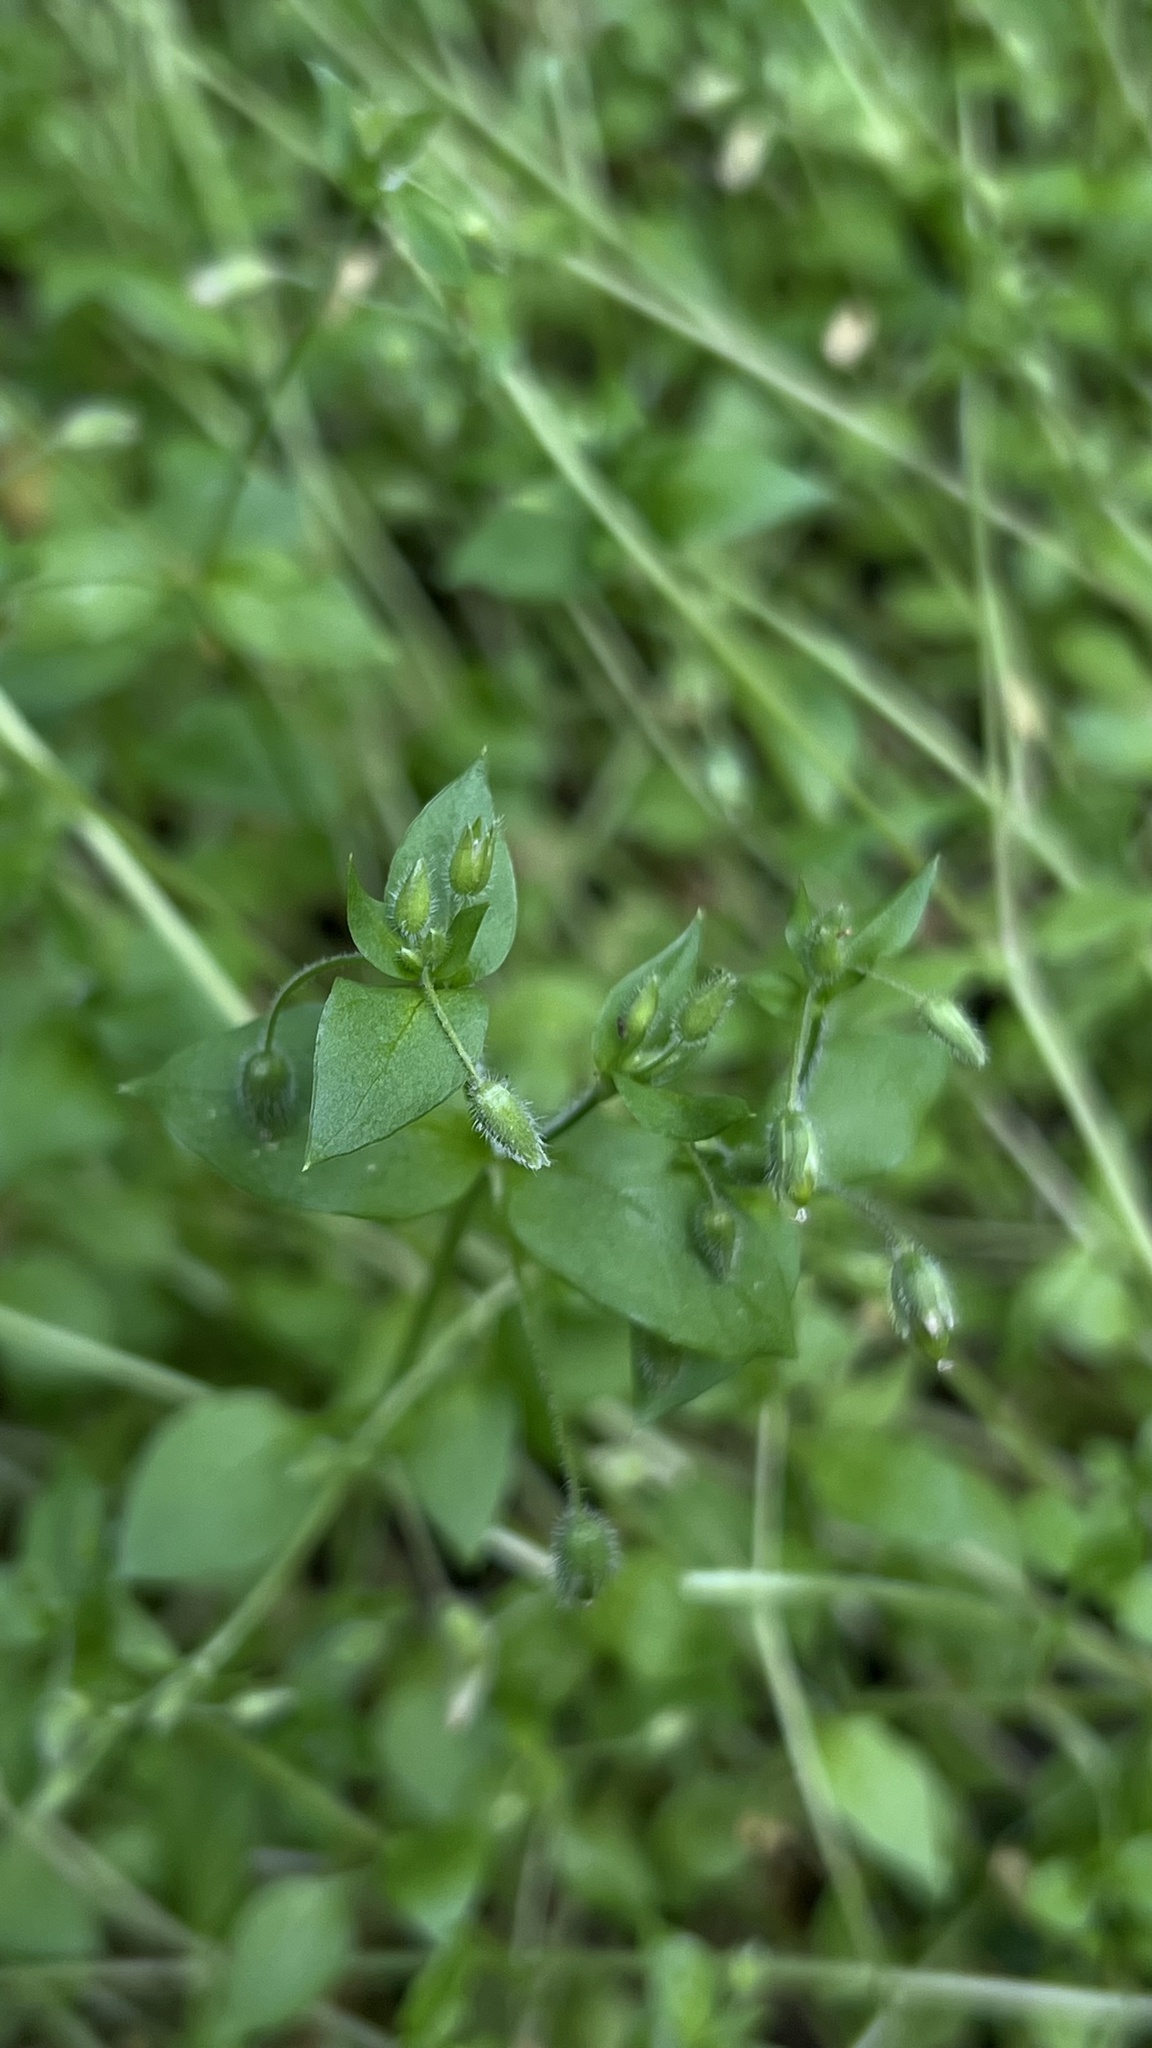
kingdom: Plantae
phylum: Tracheophyta
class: Magnoliopsida
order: Caryophyllales
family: Caryophyllaceae
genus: Stellaria
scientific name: Stellaria aquatica
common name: Water chickweed
